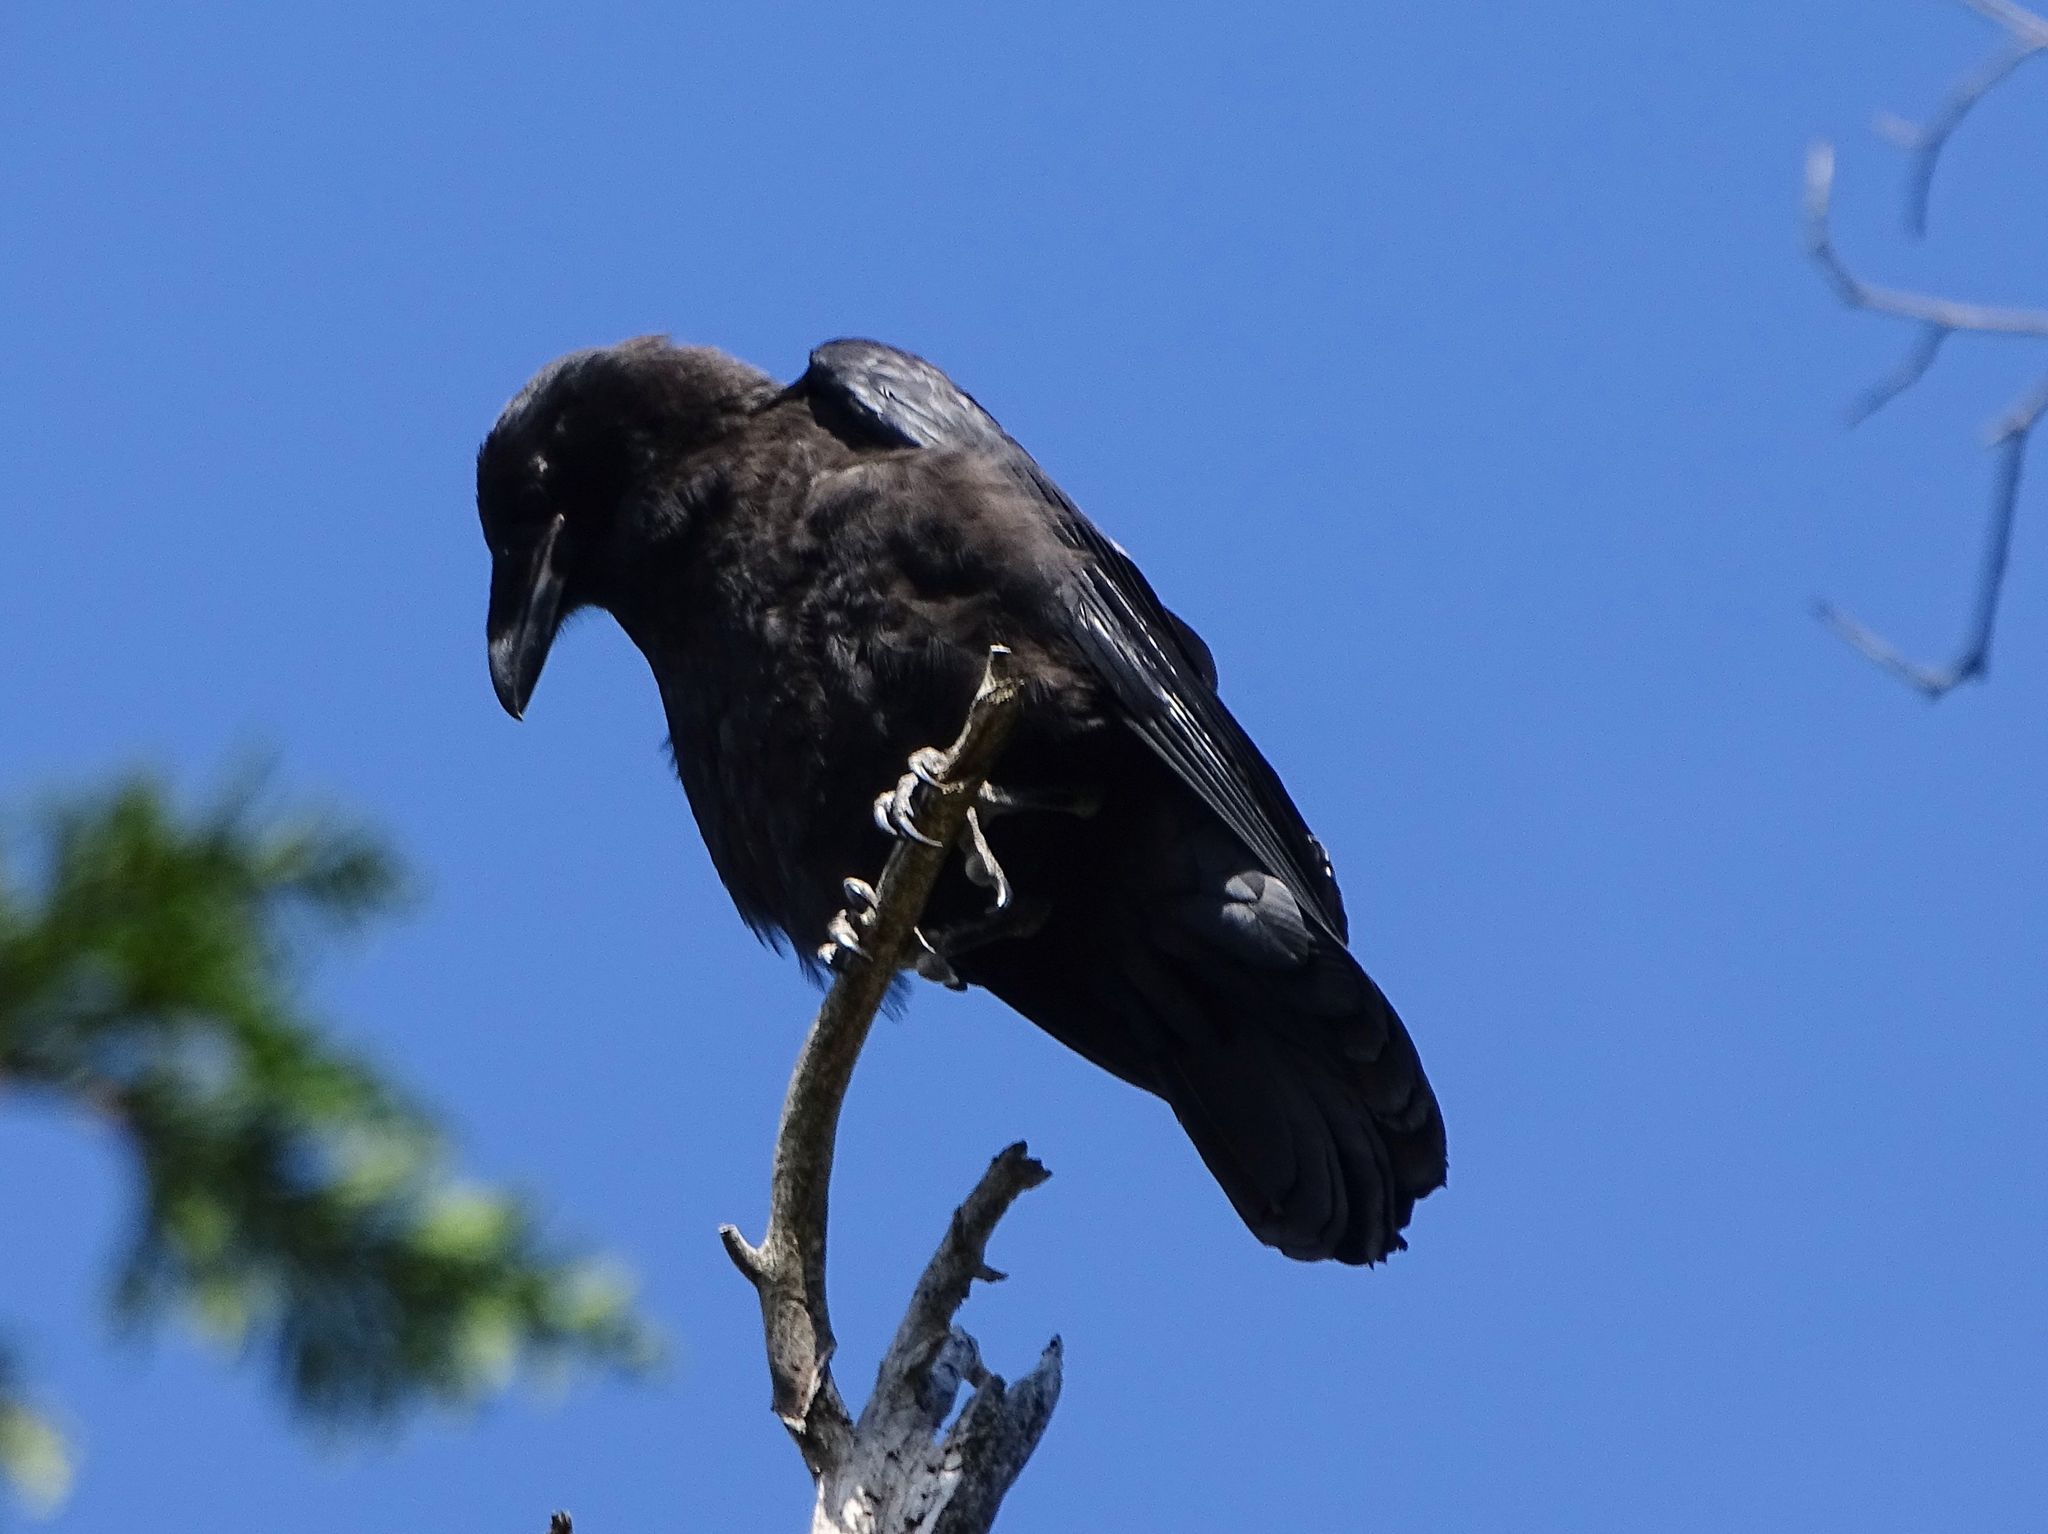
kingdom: Animalia
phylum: Chordata
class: Aves
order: Passeriformes
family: Corvidae
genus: Corvus
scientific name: Corvus corax
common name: Common raven
